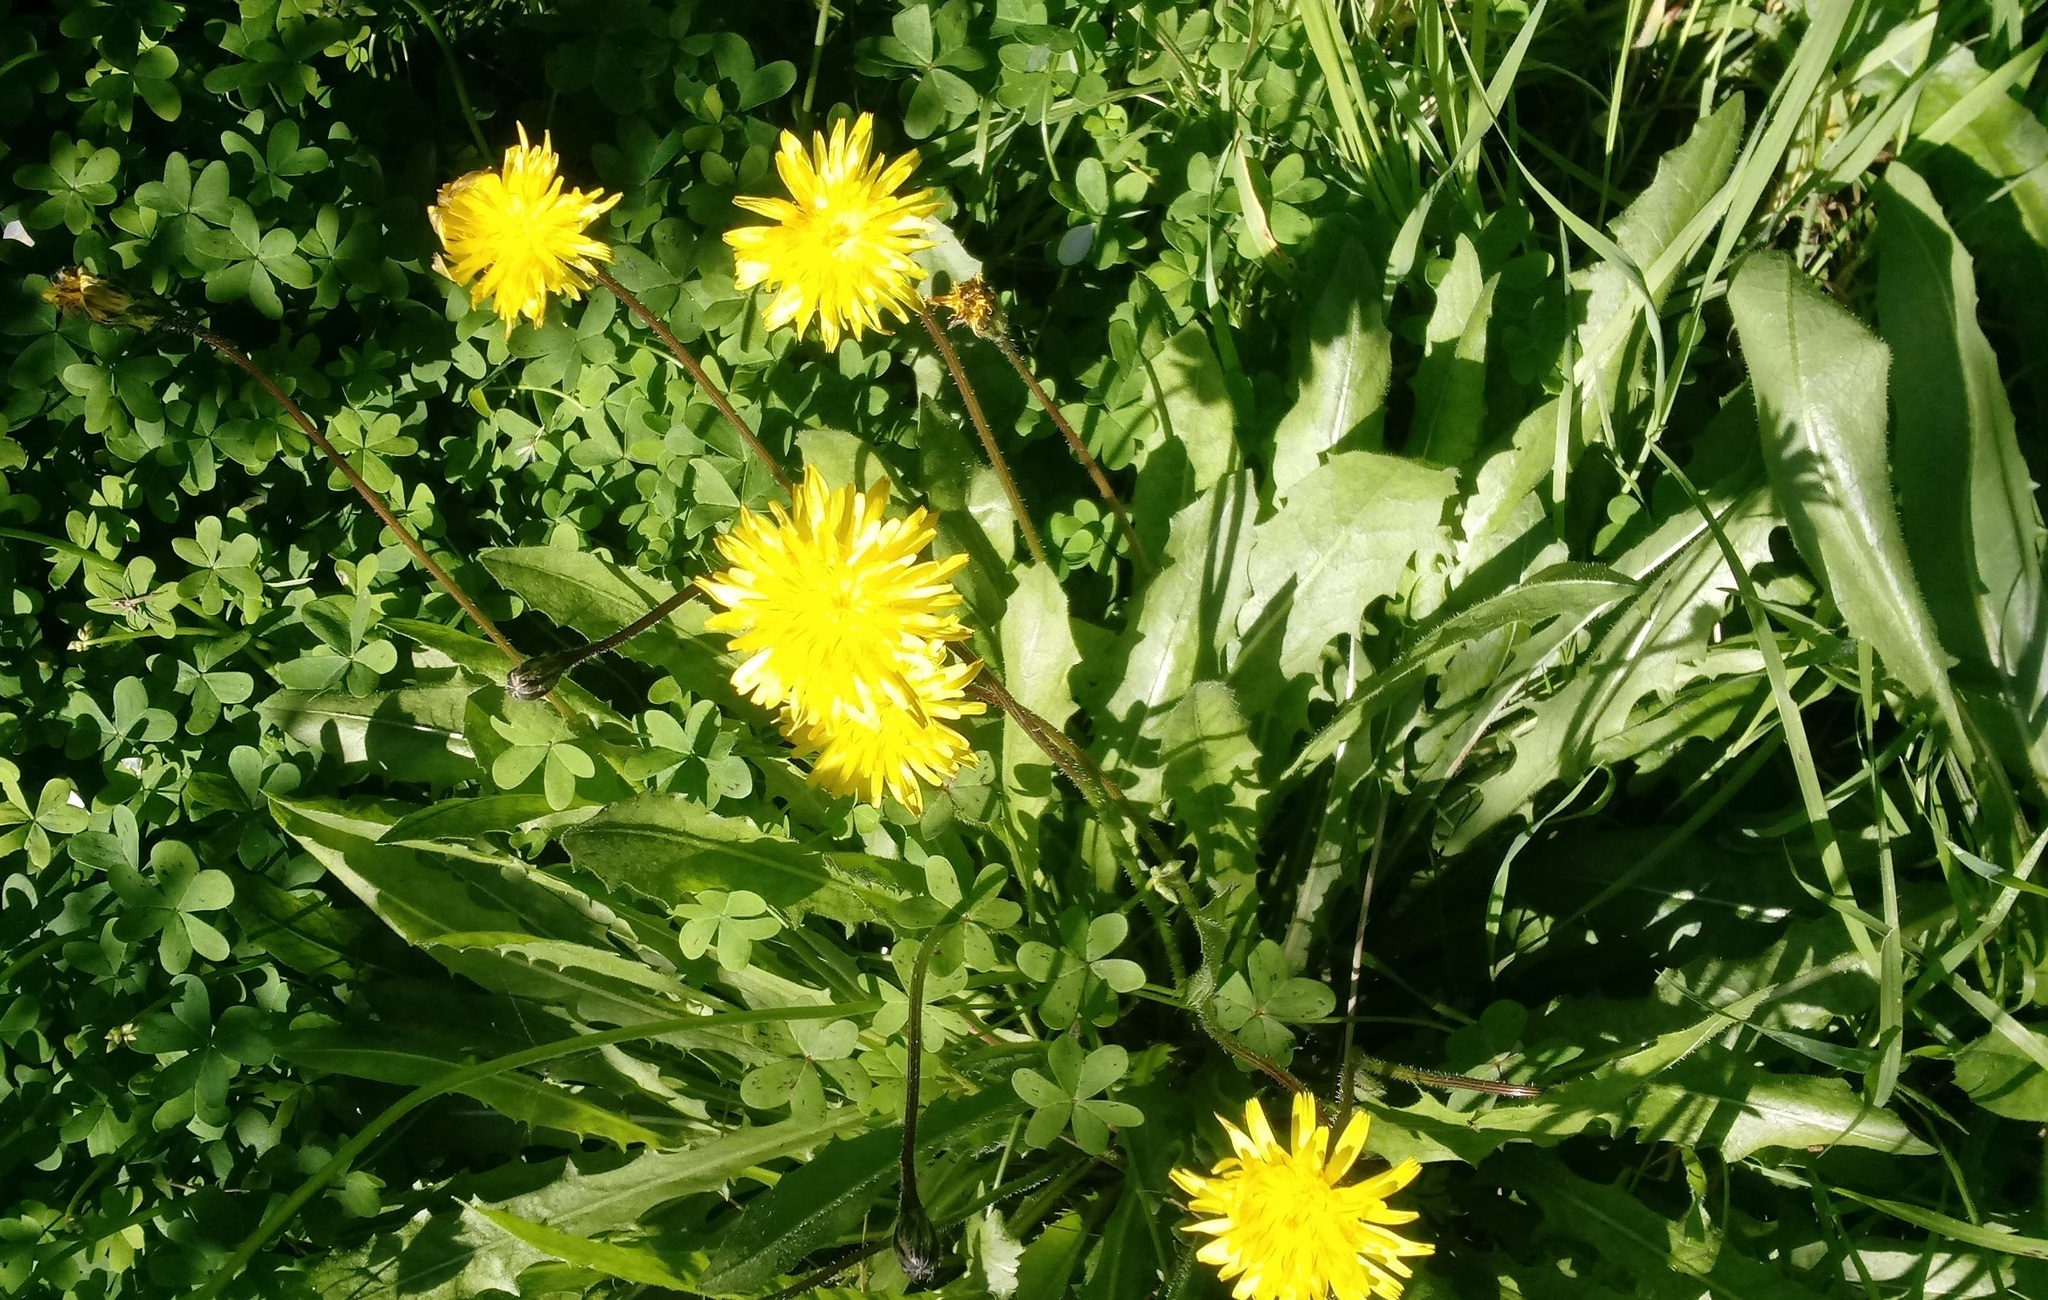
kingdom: Plantae
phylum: Tracheophyta
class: Magnoliopsida
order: Asterales
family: Asteraceae
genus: Leontodon
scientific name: Leontodon tuberosus
